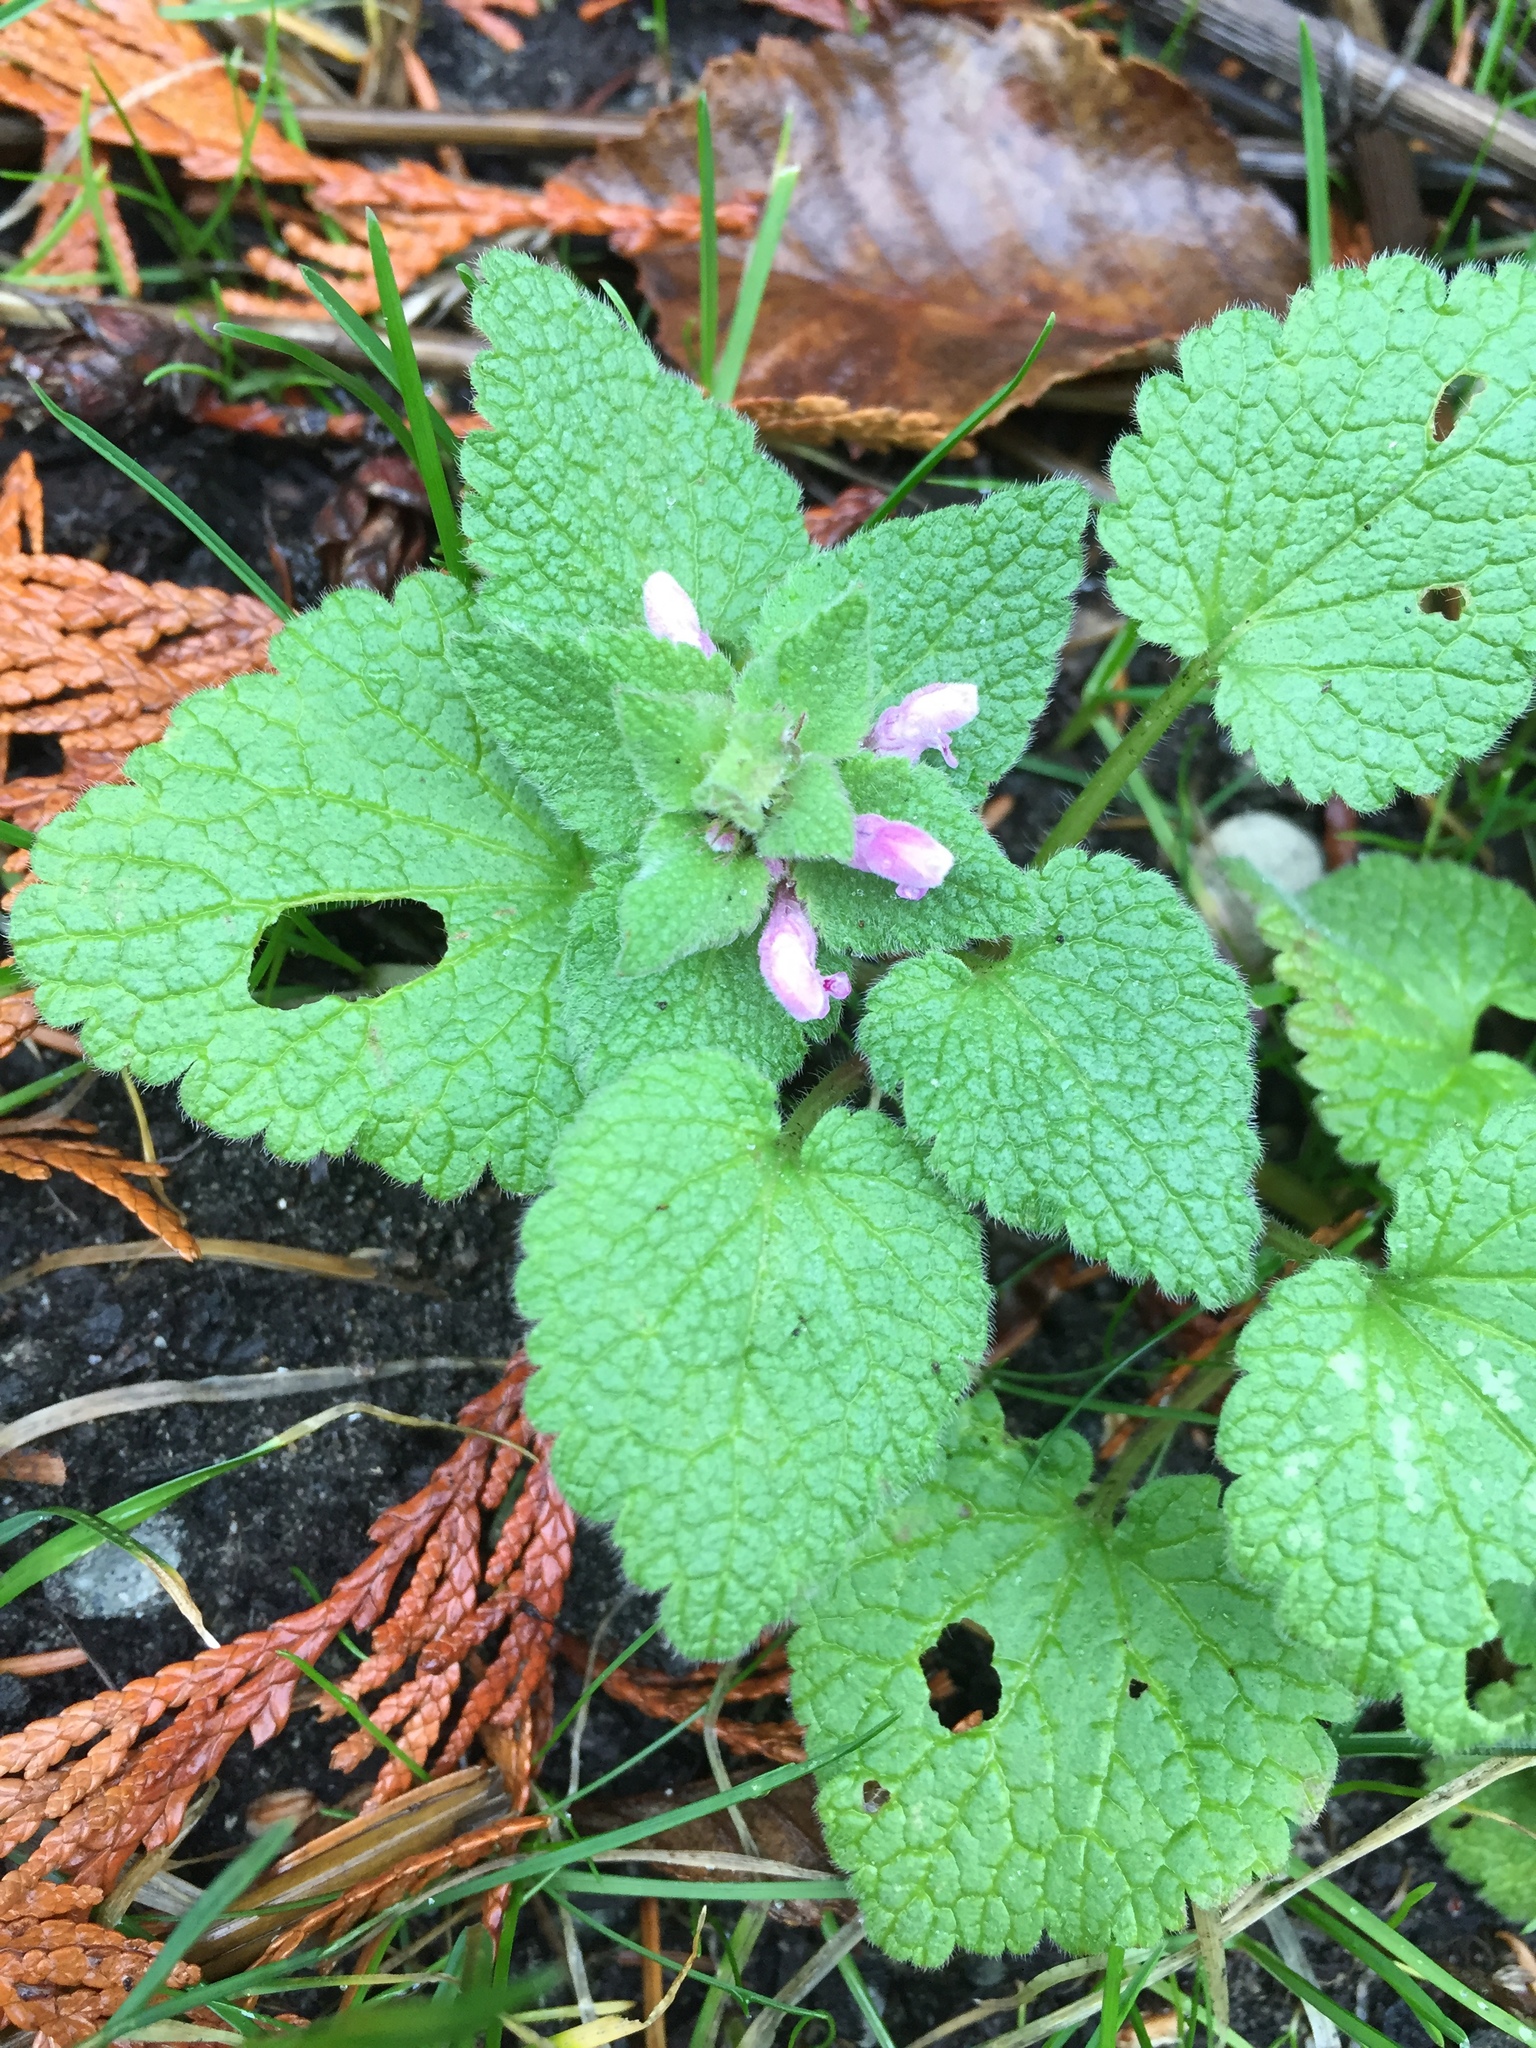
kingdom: Plantae
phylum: Tracheophyta
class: Magnoliopsida
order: Lamiales
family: Lamiaceae
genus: Lamium
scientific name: Lamium purpureum
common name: Red dead-nettle
